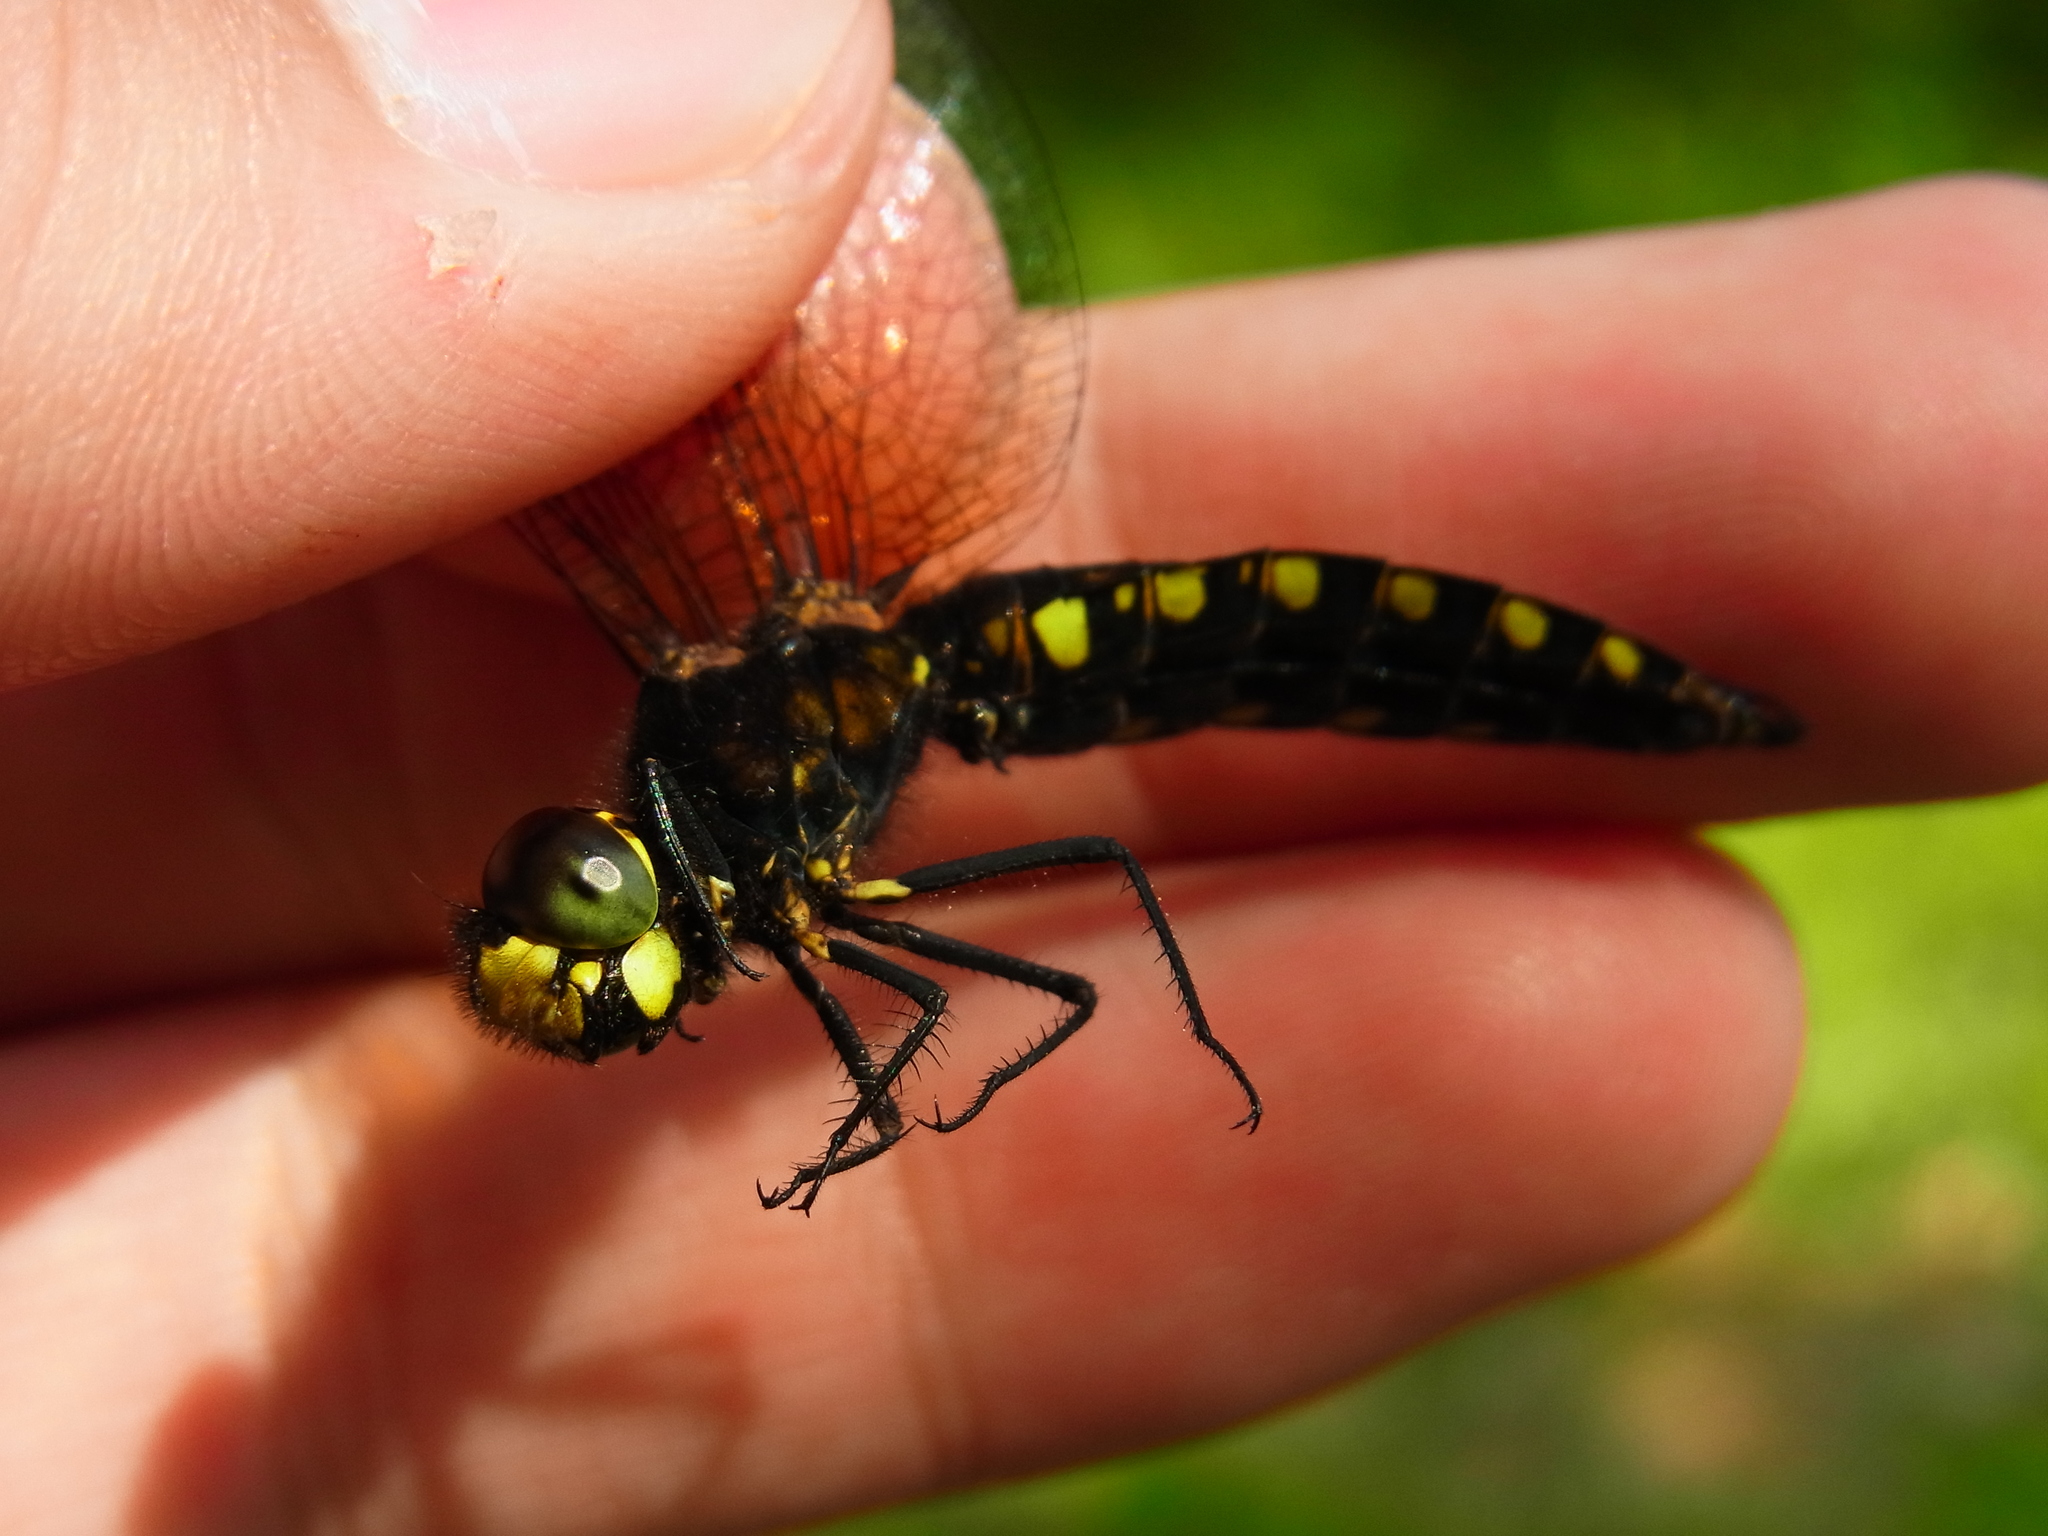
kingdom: Animalia
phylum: Arthropoda
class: Insecta
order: Odonata
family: Libellulidae
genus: Lyriothemis
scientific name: Lyriothemis pachygastra
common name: Wide-bellied skimmer
